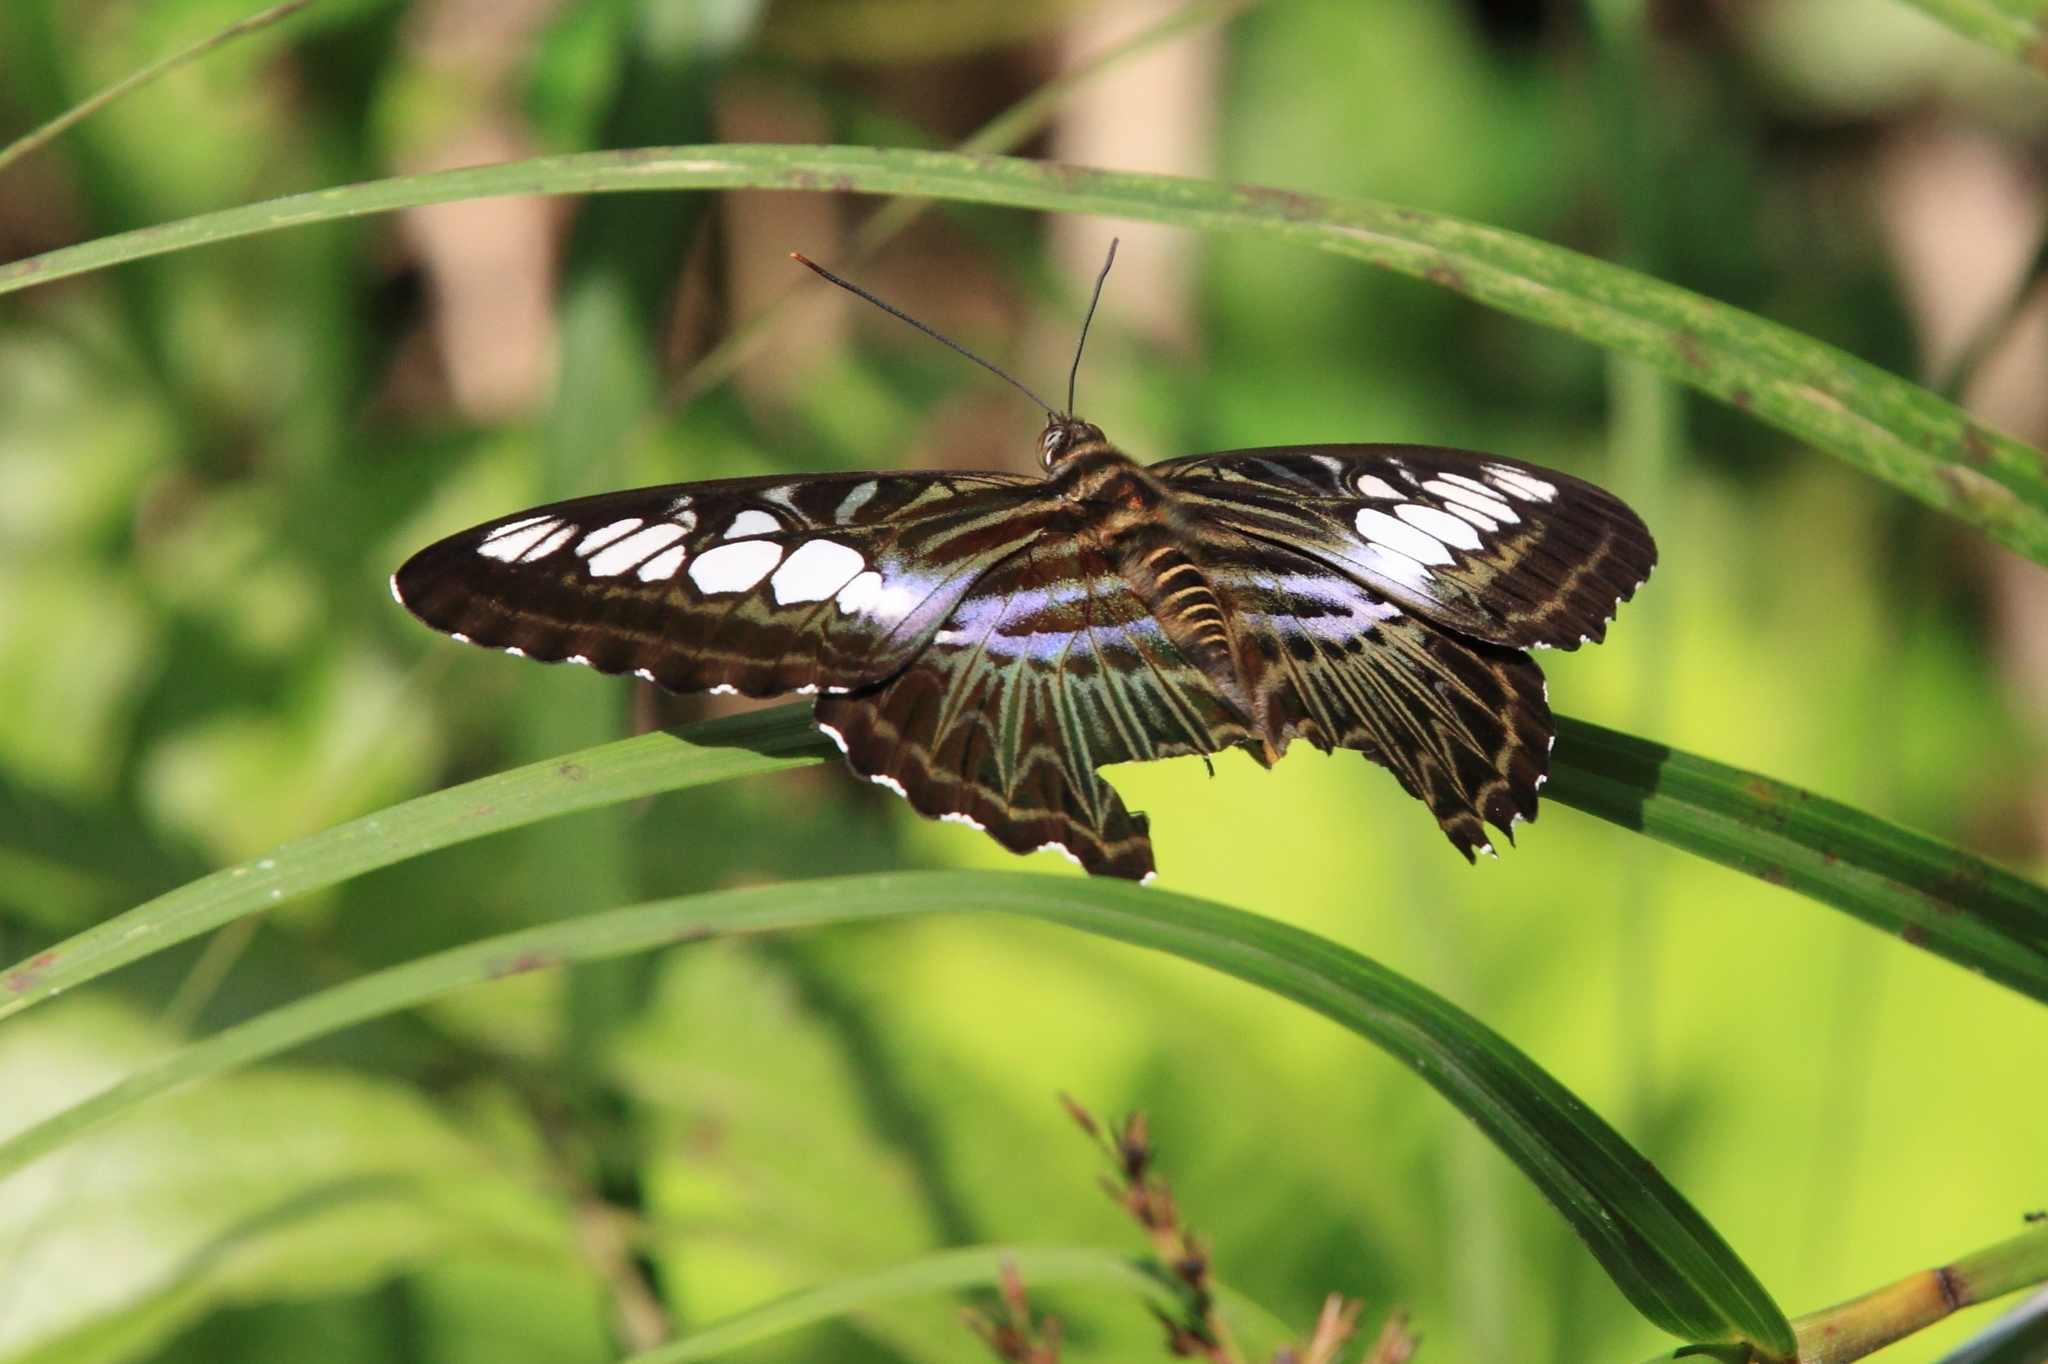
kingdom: Animalia
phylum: Arthropoda
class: Insecta
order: Lepidoptera
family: Nymphalidae
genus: Kallima
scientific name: Kallima sylvia
